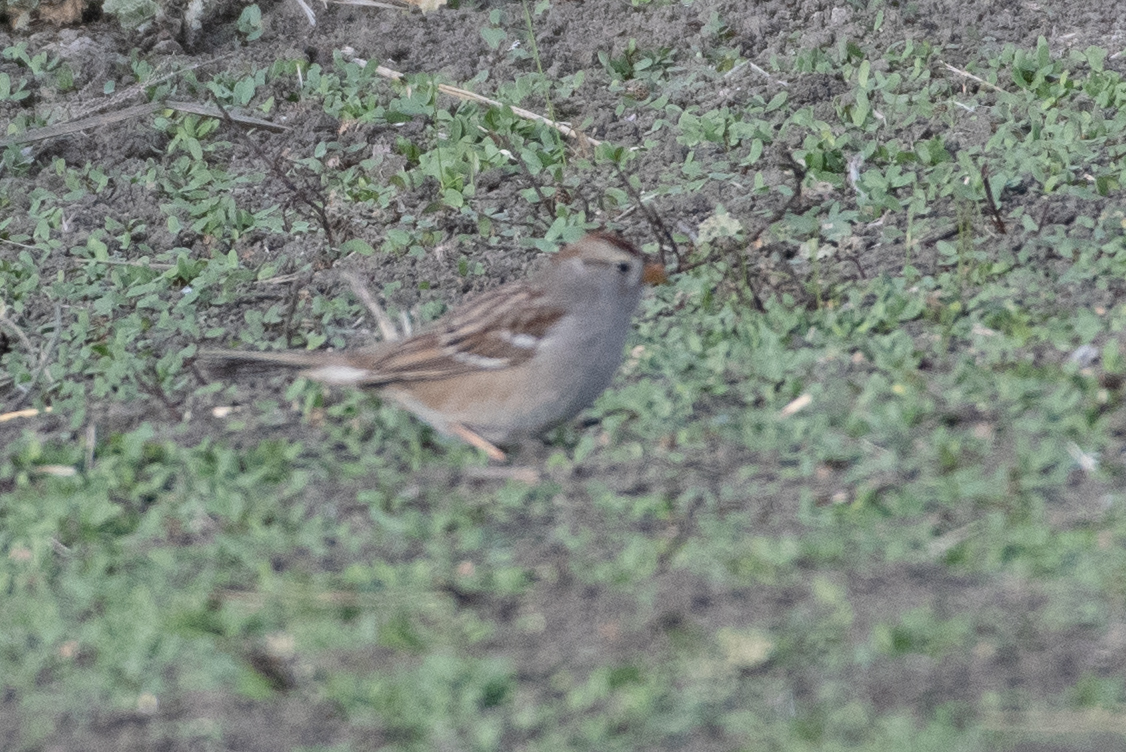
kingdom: Animalia
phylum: Chordata
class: Aves
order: Passeriformes
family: Passerellidae
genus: Zonotrichia
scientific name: Zonotrichia leucophrys
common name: White-crowned sparrow
